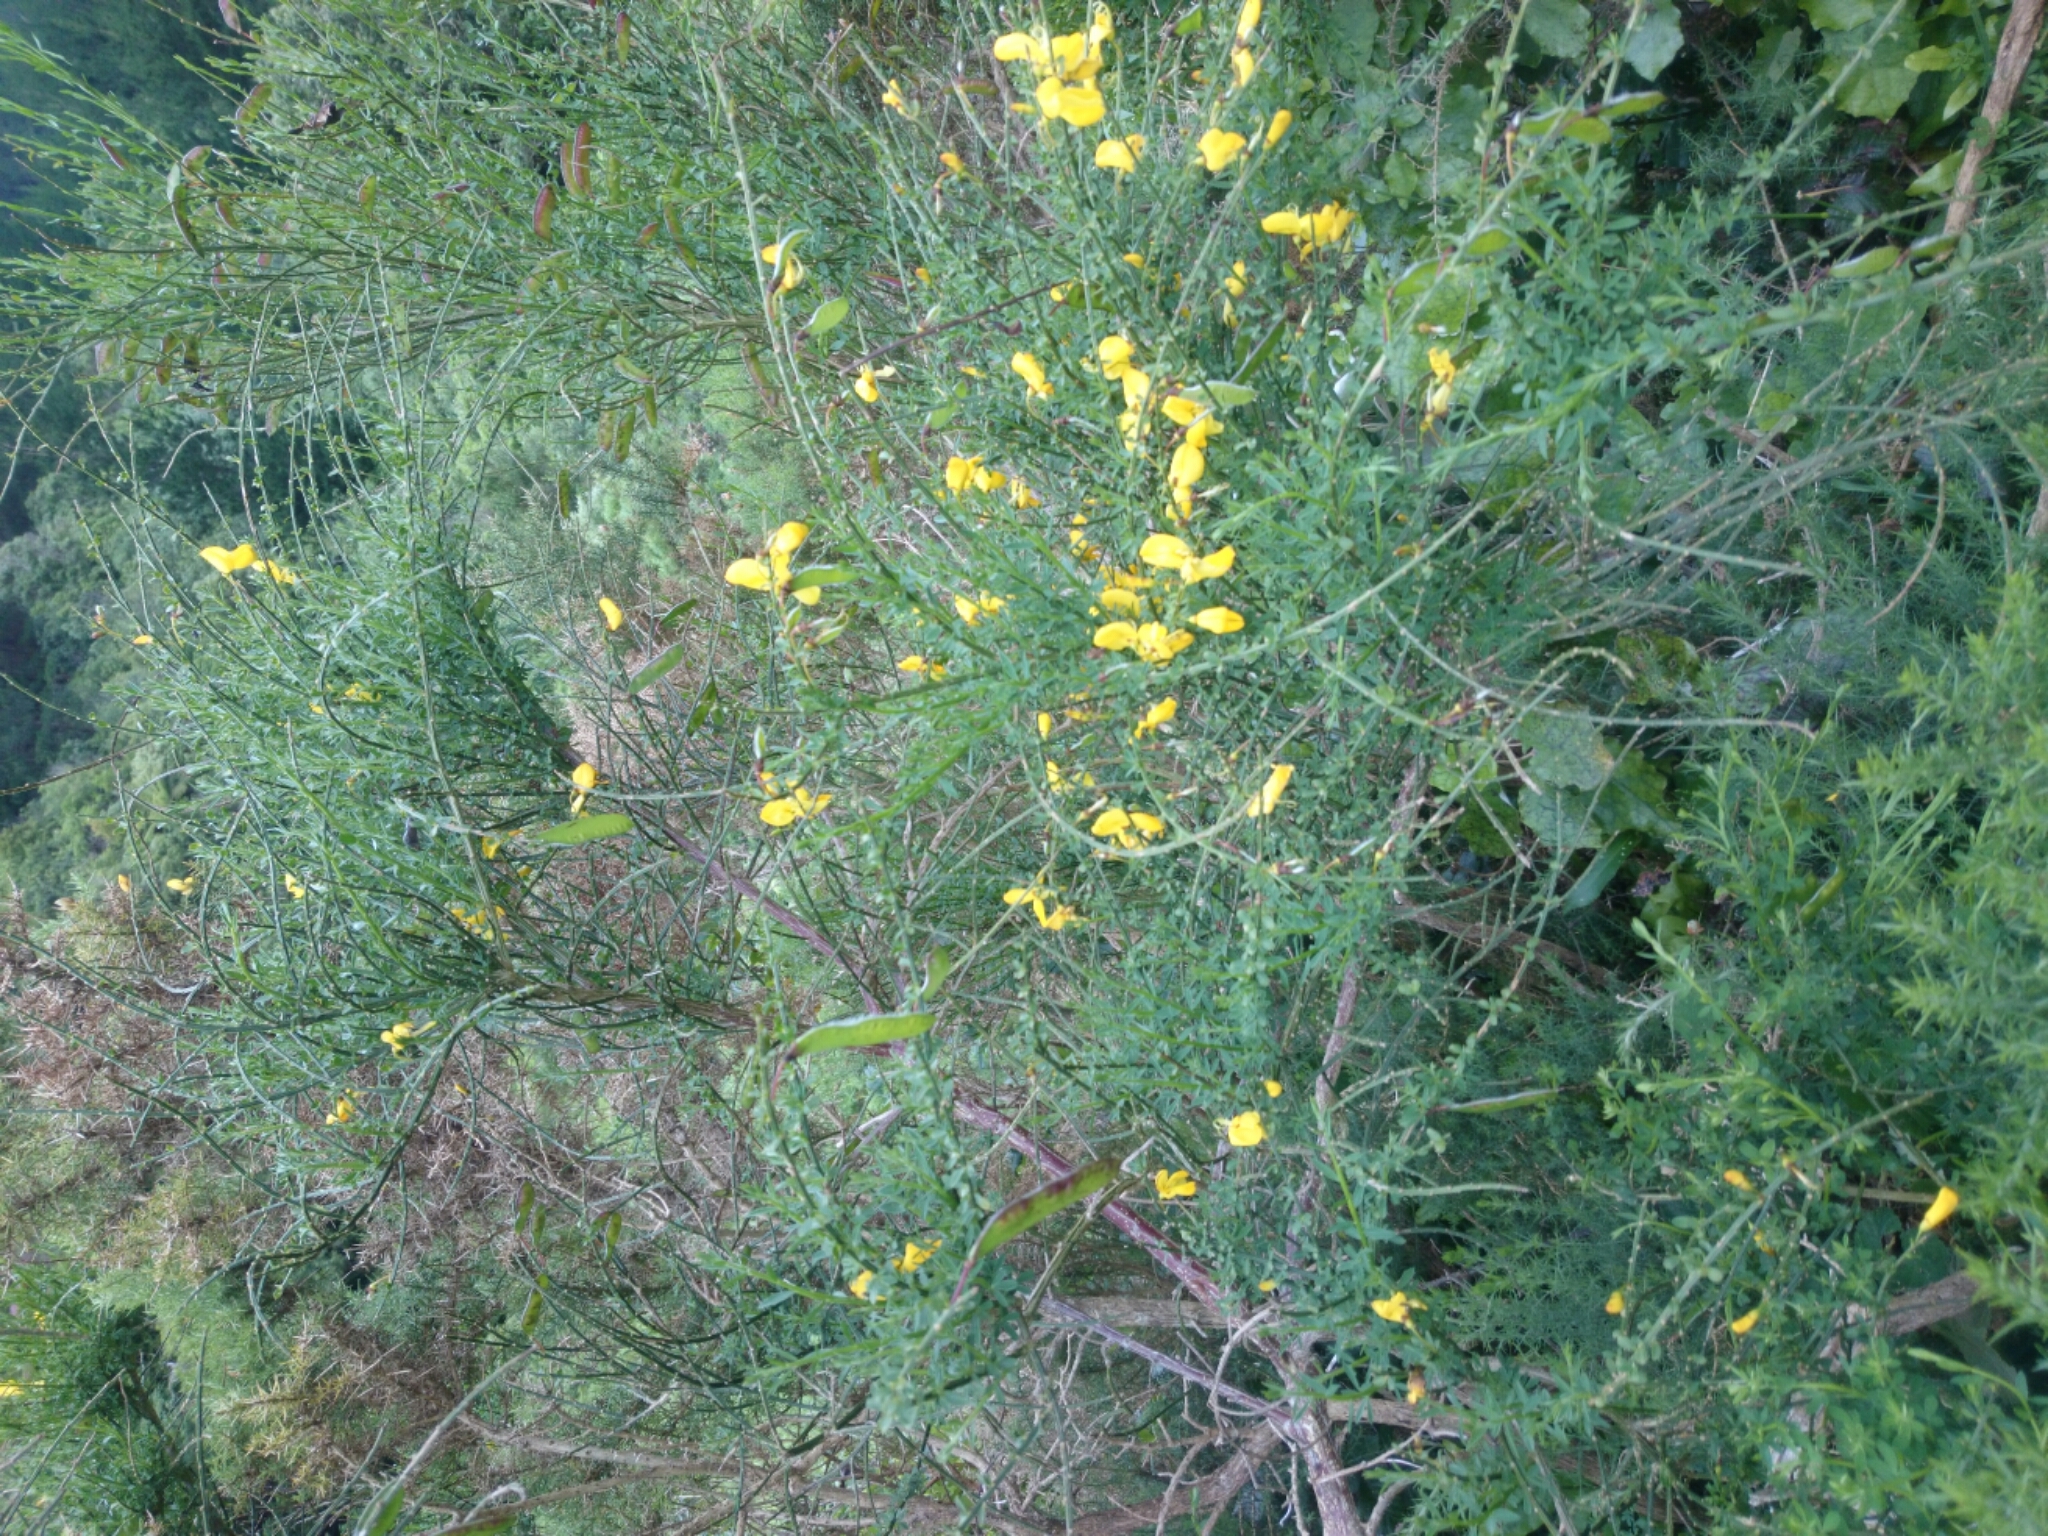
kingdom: Plantae
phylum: Tracheophyta
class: Magnoliopsida
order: Fabales
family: Fabaceae
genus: Cytisus
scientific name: Cytisus scoparius
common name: Scotch broom
